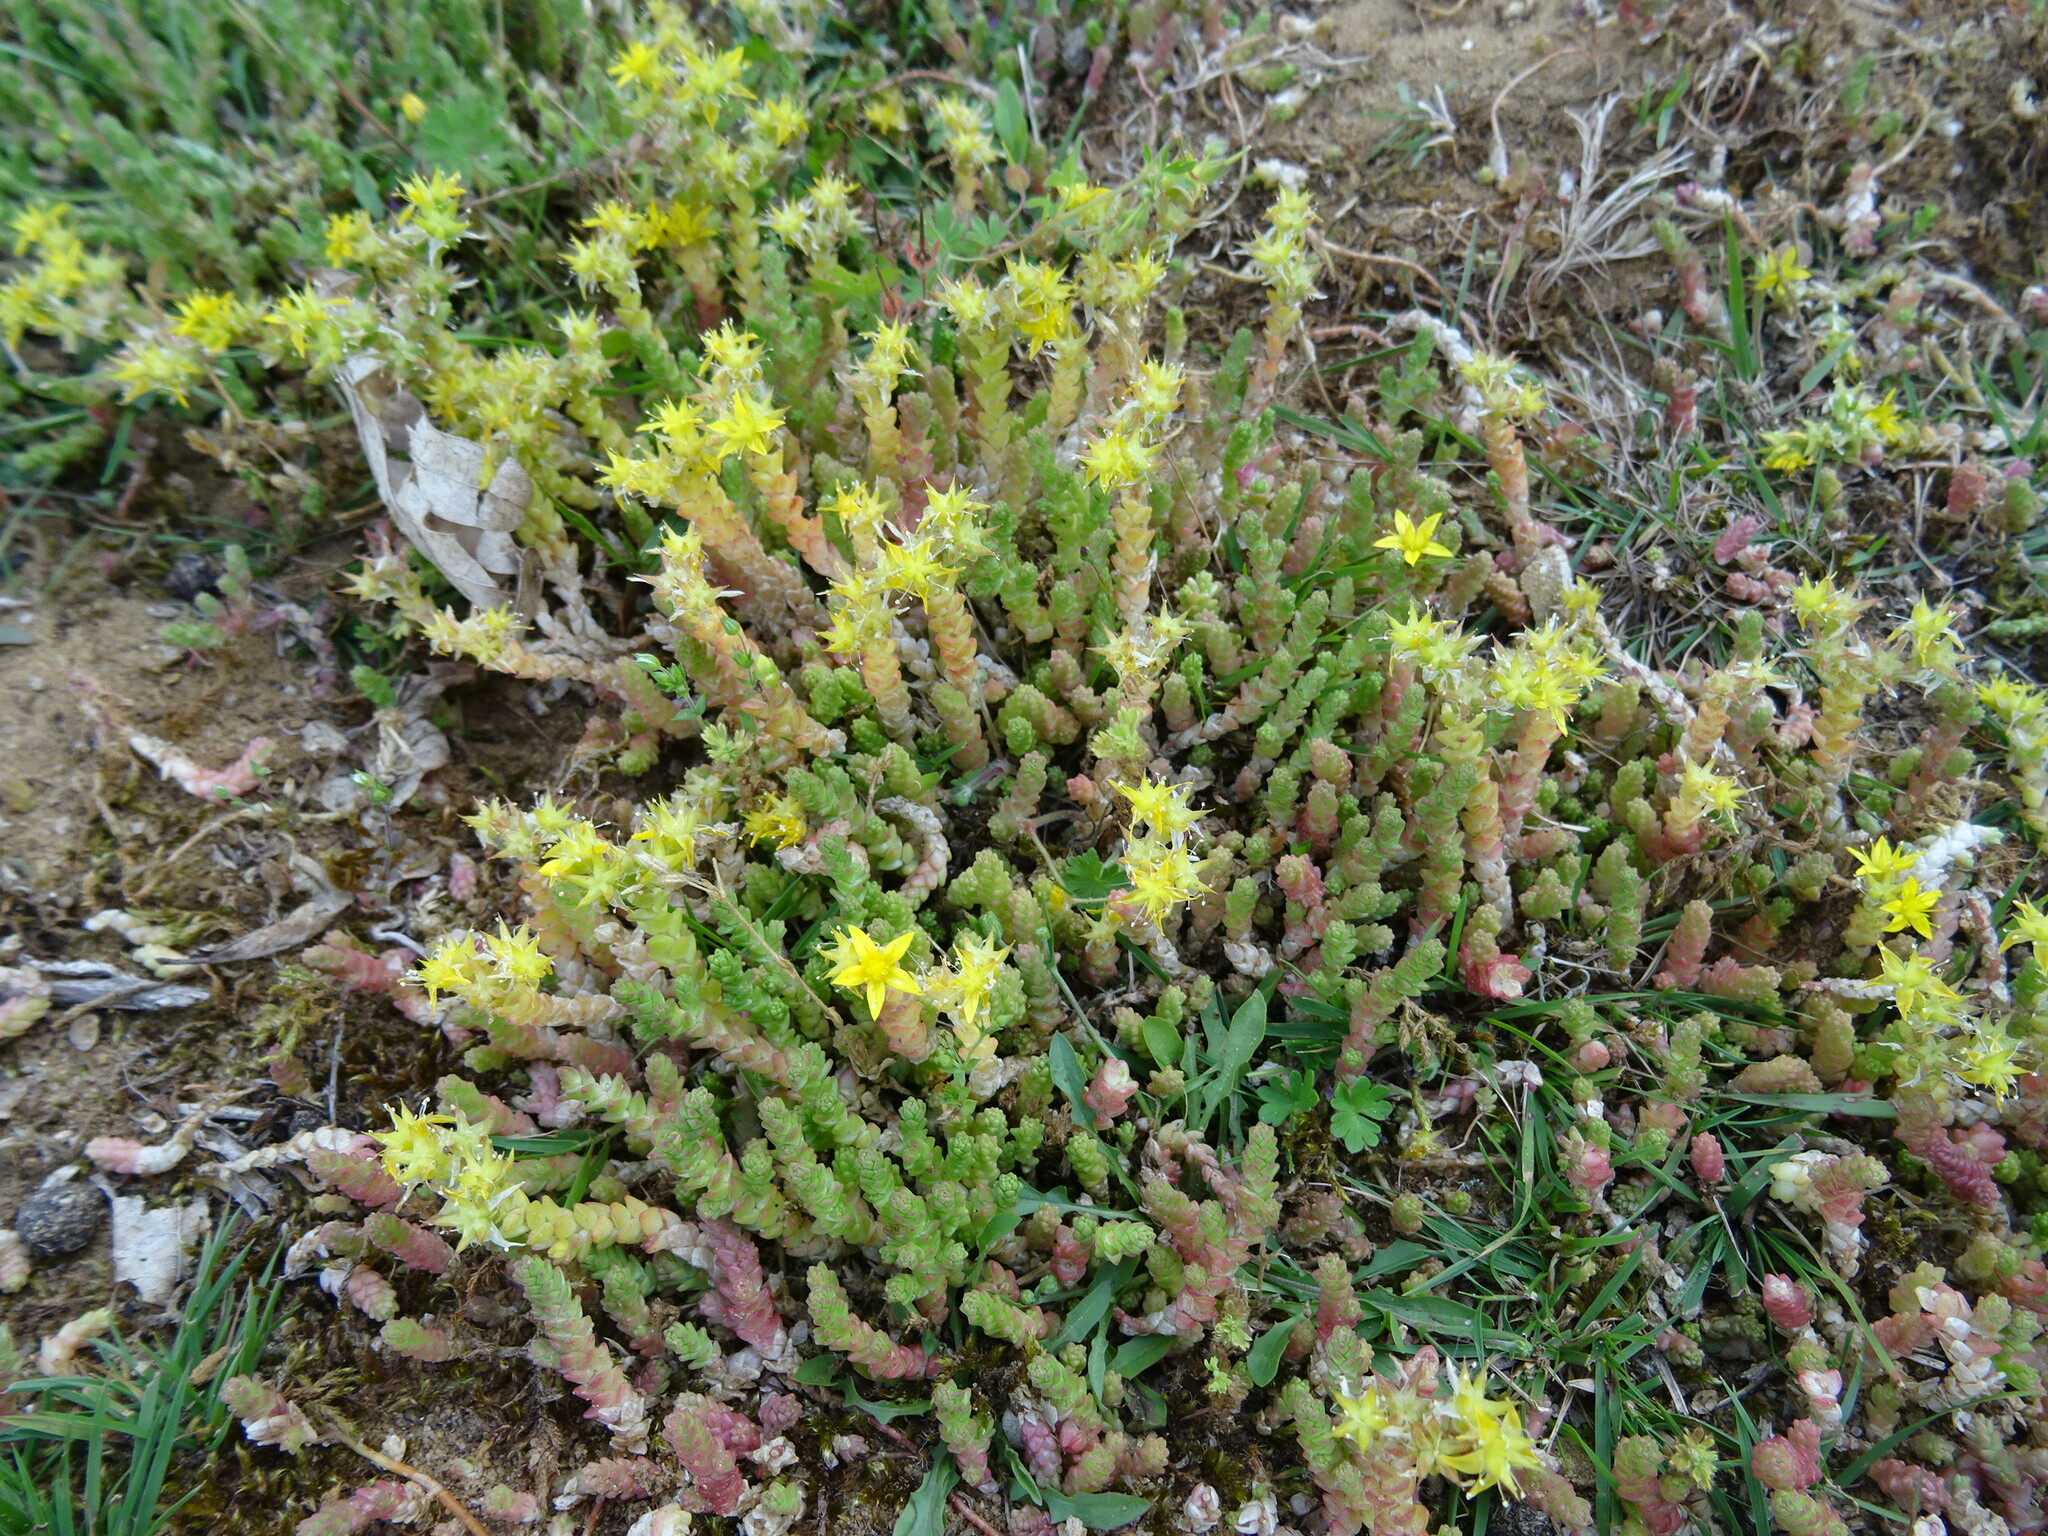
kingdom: Plantae
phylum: Tracheophyta
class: Magnoliopsida
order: Saxifragales
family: Crassulaceae
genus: Sedum
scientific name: Sedum acre
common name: Biting stonecrop
